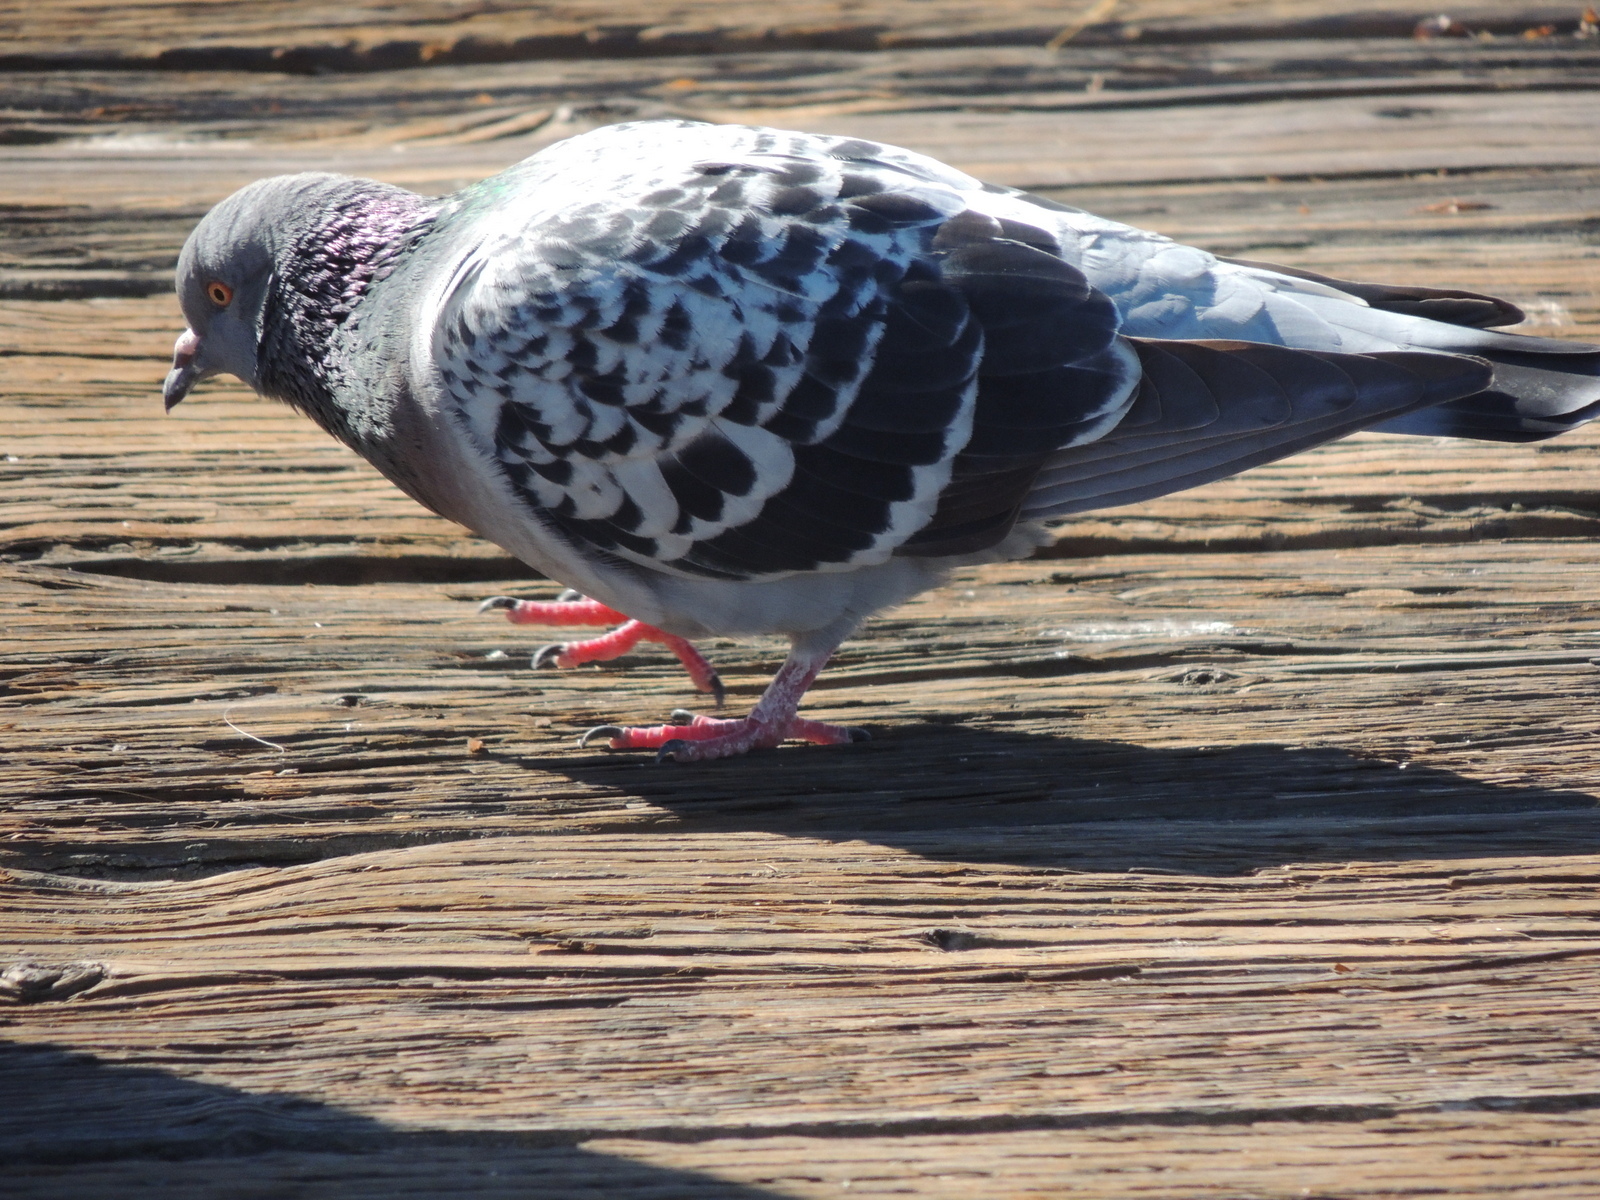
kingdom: Animalia
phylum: Chordata
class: Aves
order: Columbiformes
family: Columbidae
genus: Columba
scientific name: Columba livia
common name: Rock pigeon
